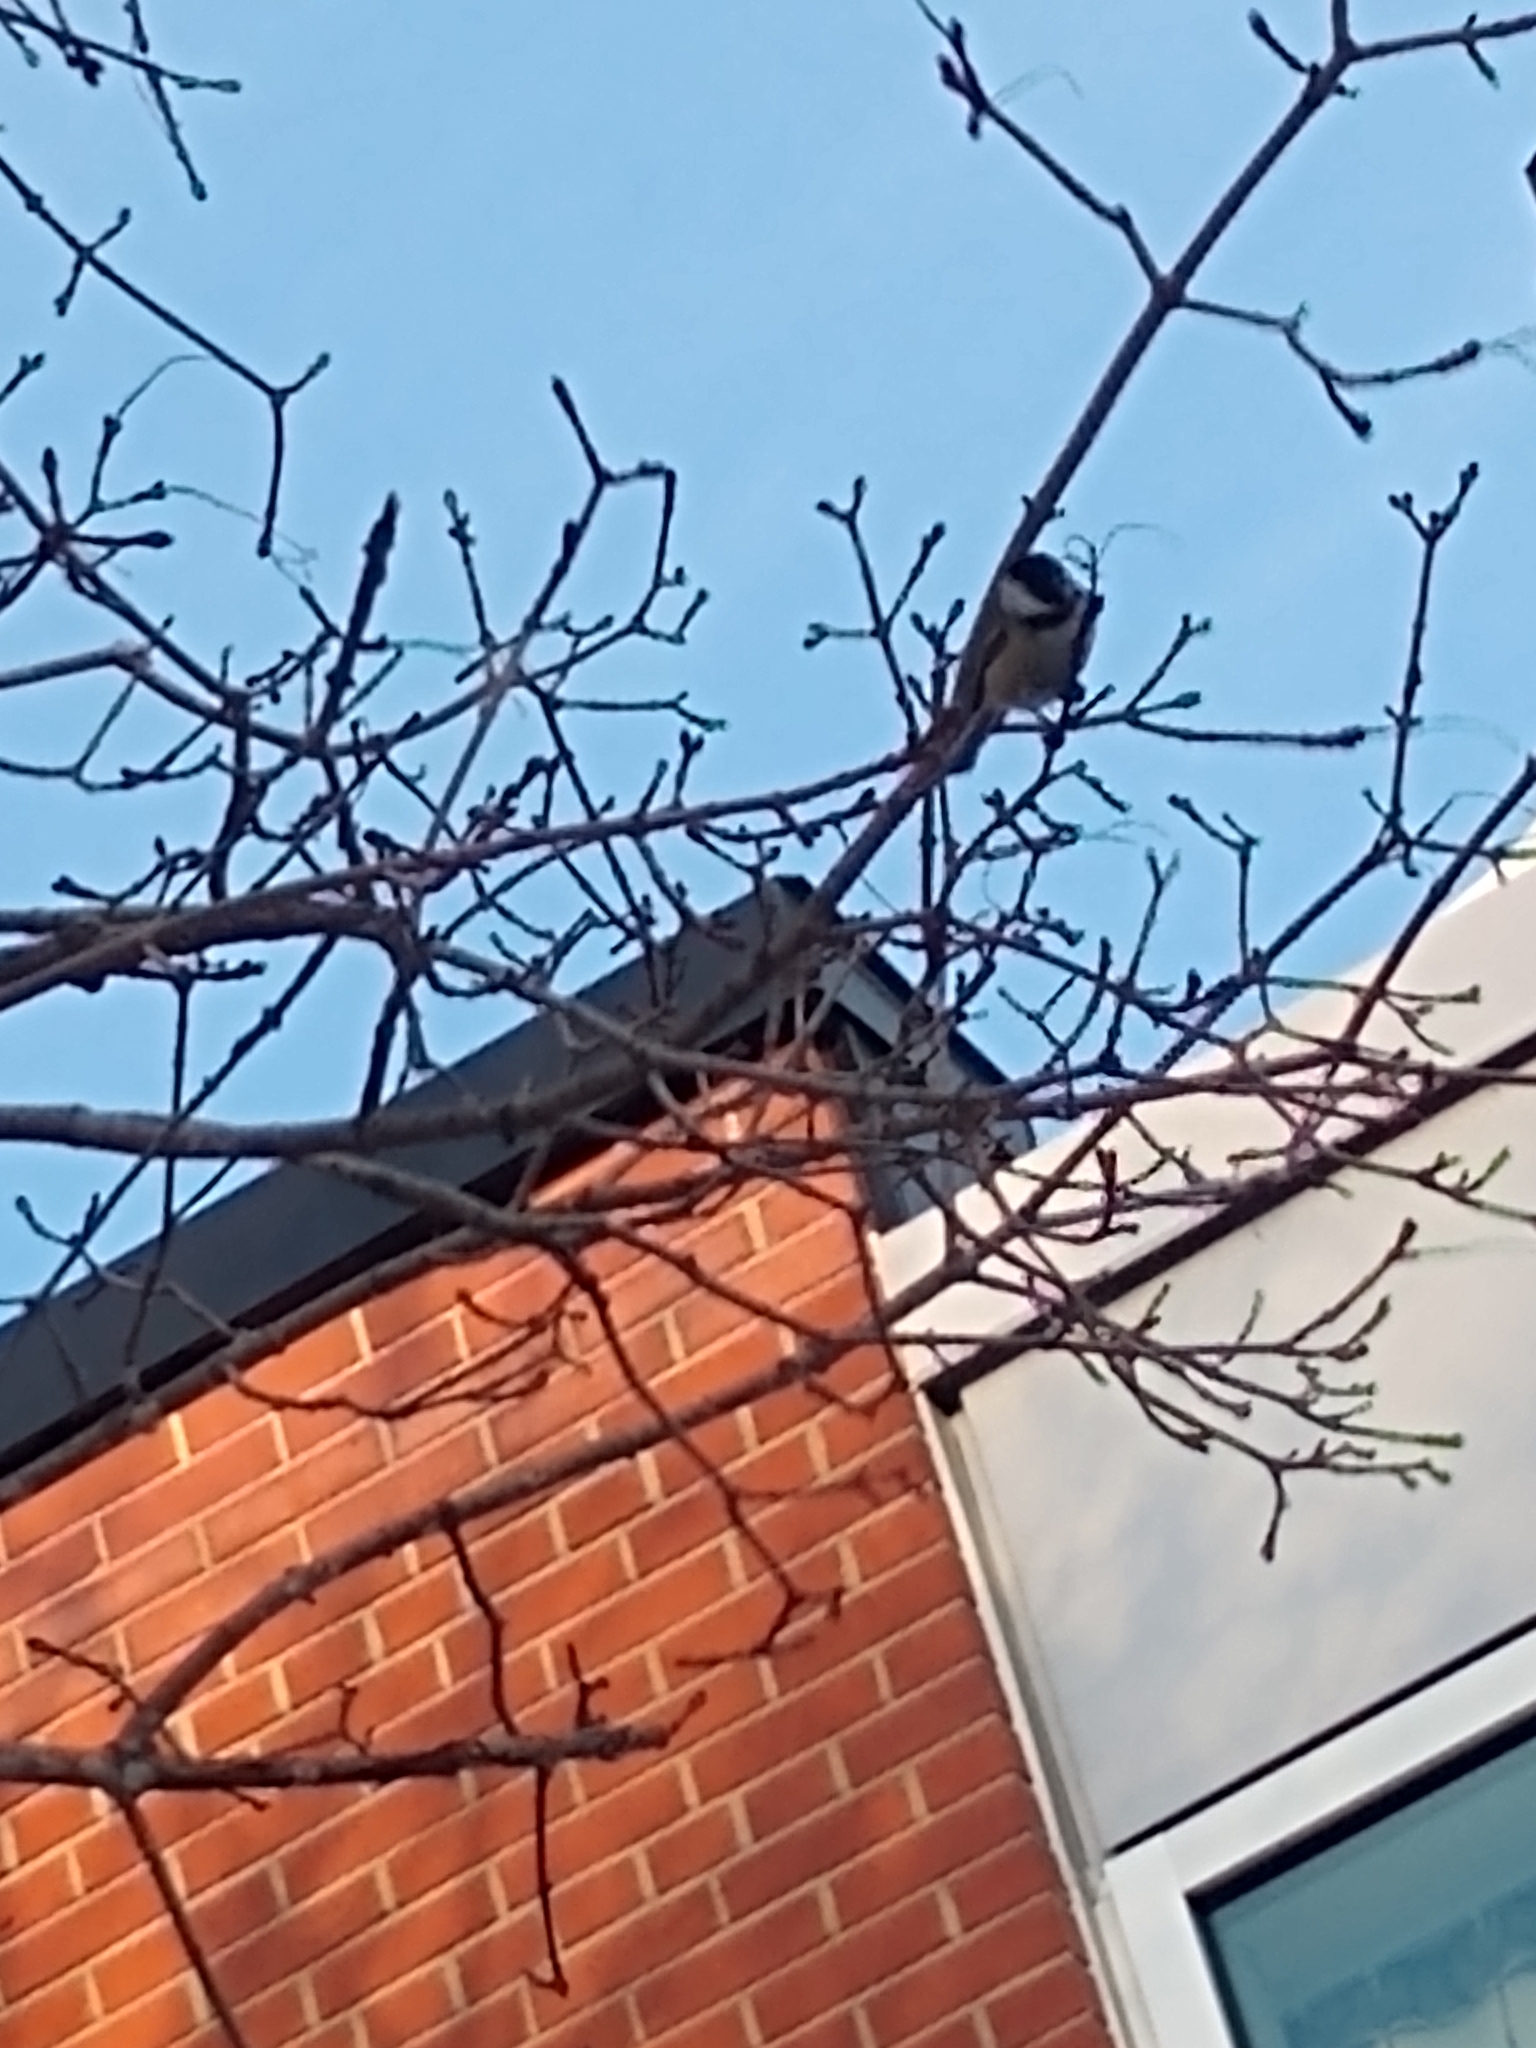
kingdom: Animalia
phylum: Chordata
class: Aves
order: Passeriformes
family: Paridae
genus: Poecile
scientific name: Poecile atricapillus
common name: Black-capped chickadee
